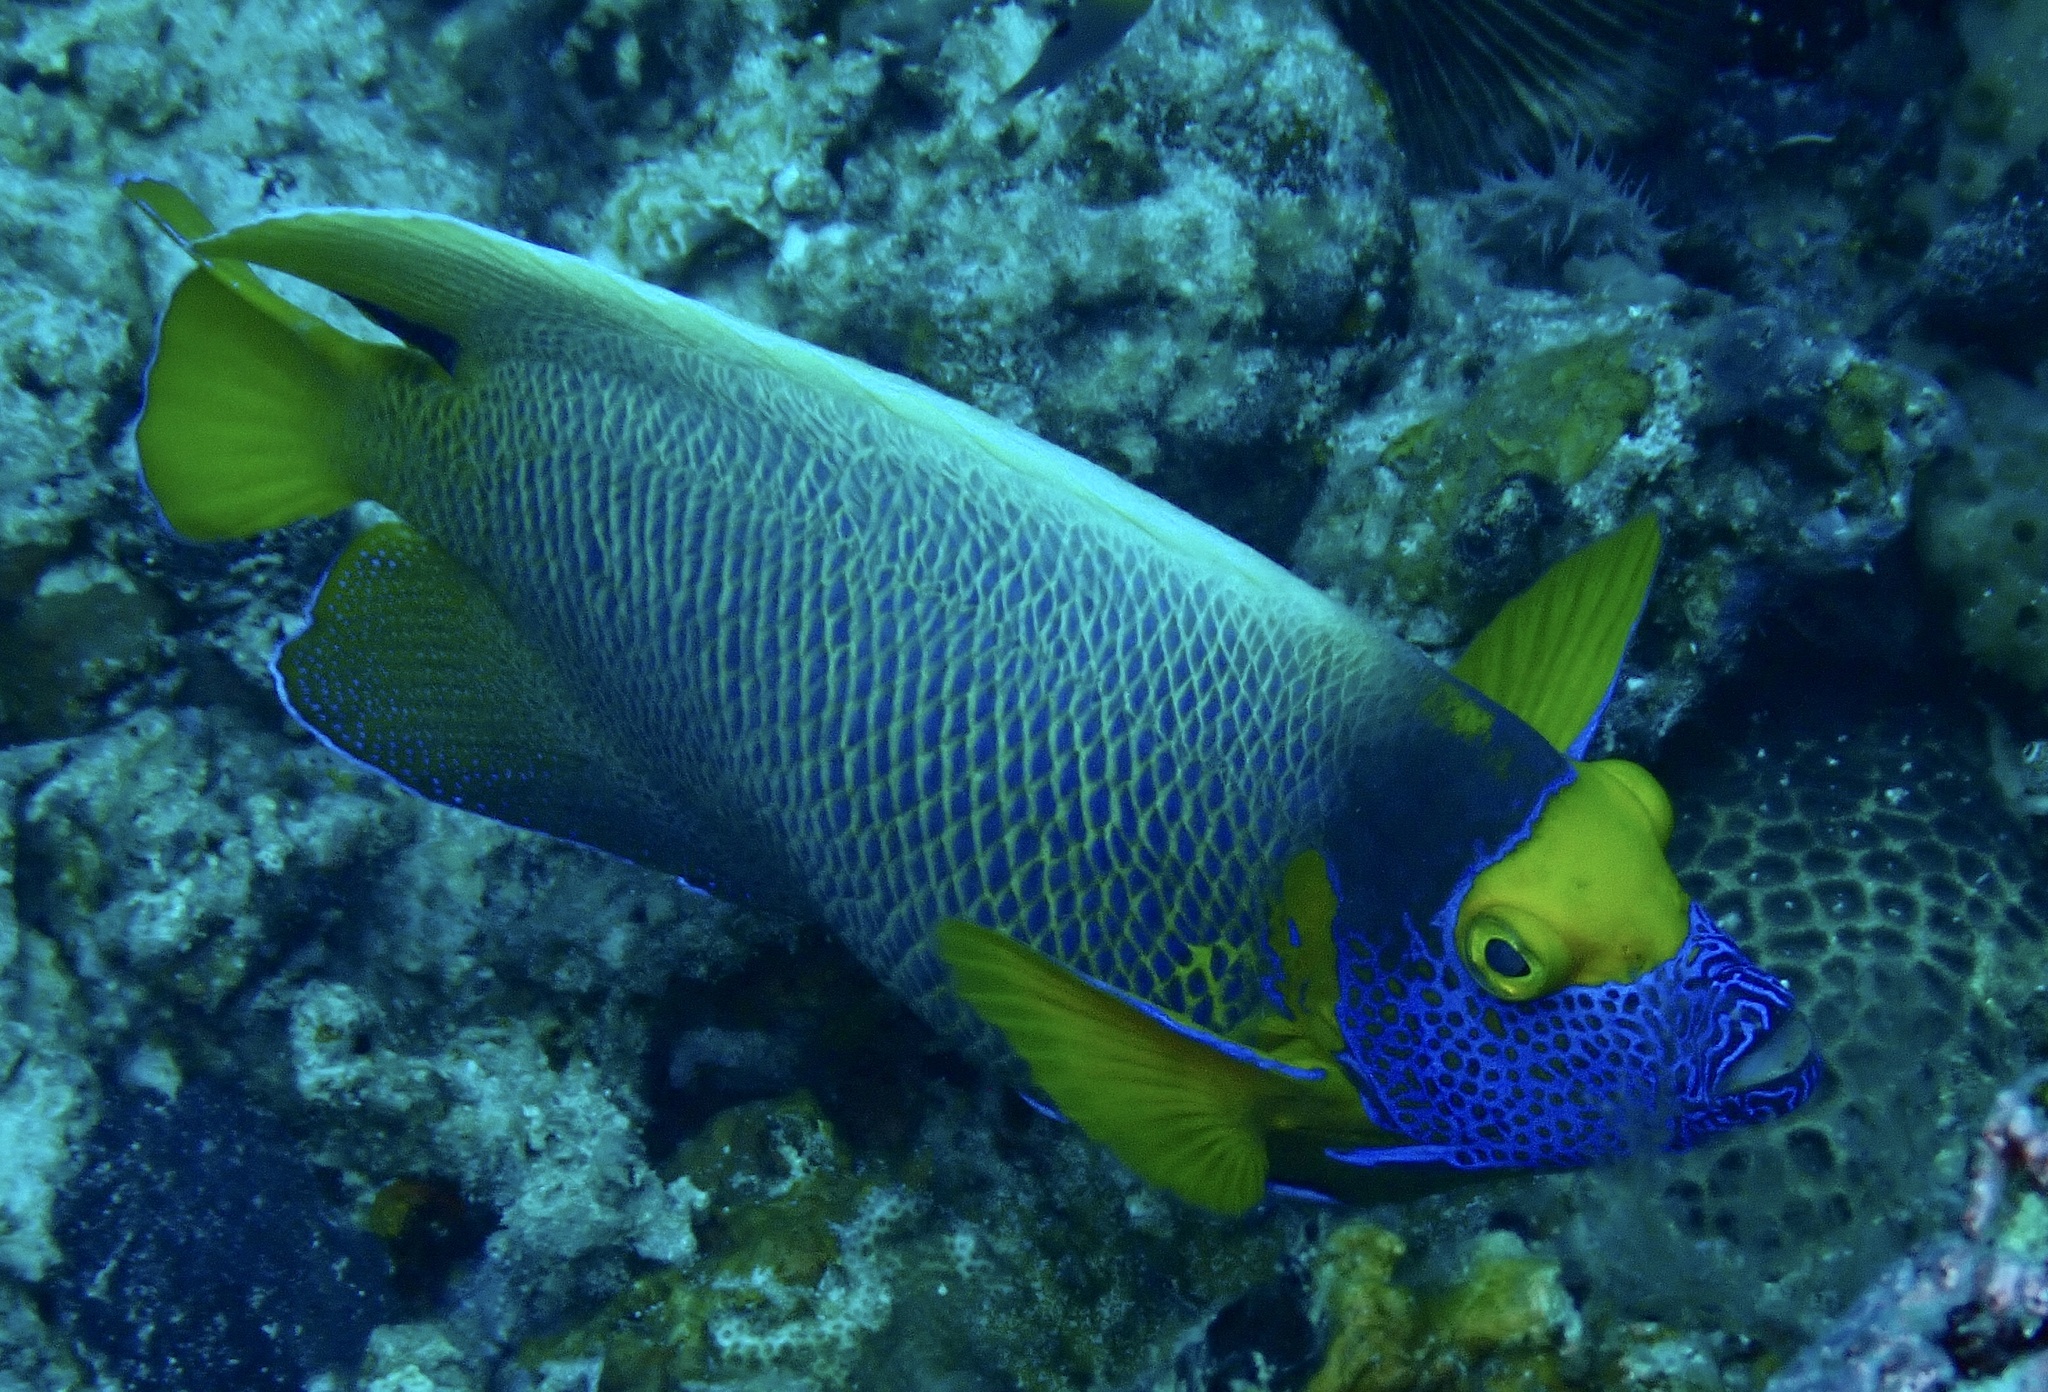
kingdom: Animalia
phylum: Chordata
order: Perciformes
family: Pomacanthidae
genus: Pomacanthus
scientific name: Pomacanthus xanthometopon
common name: Yellow-faced angelfish
